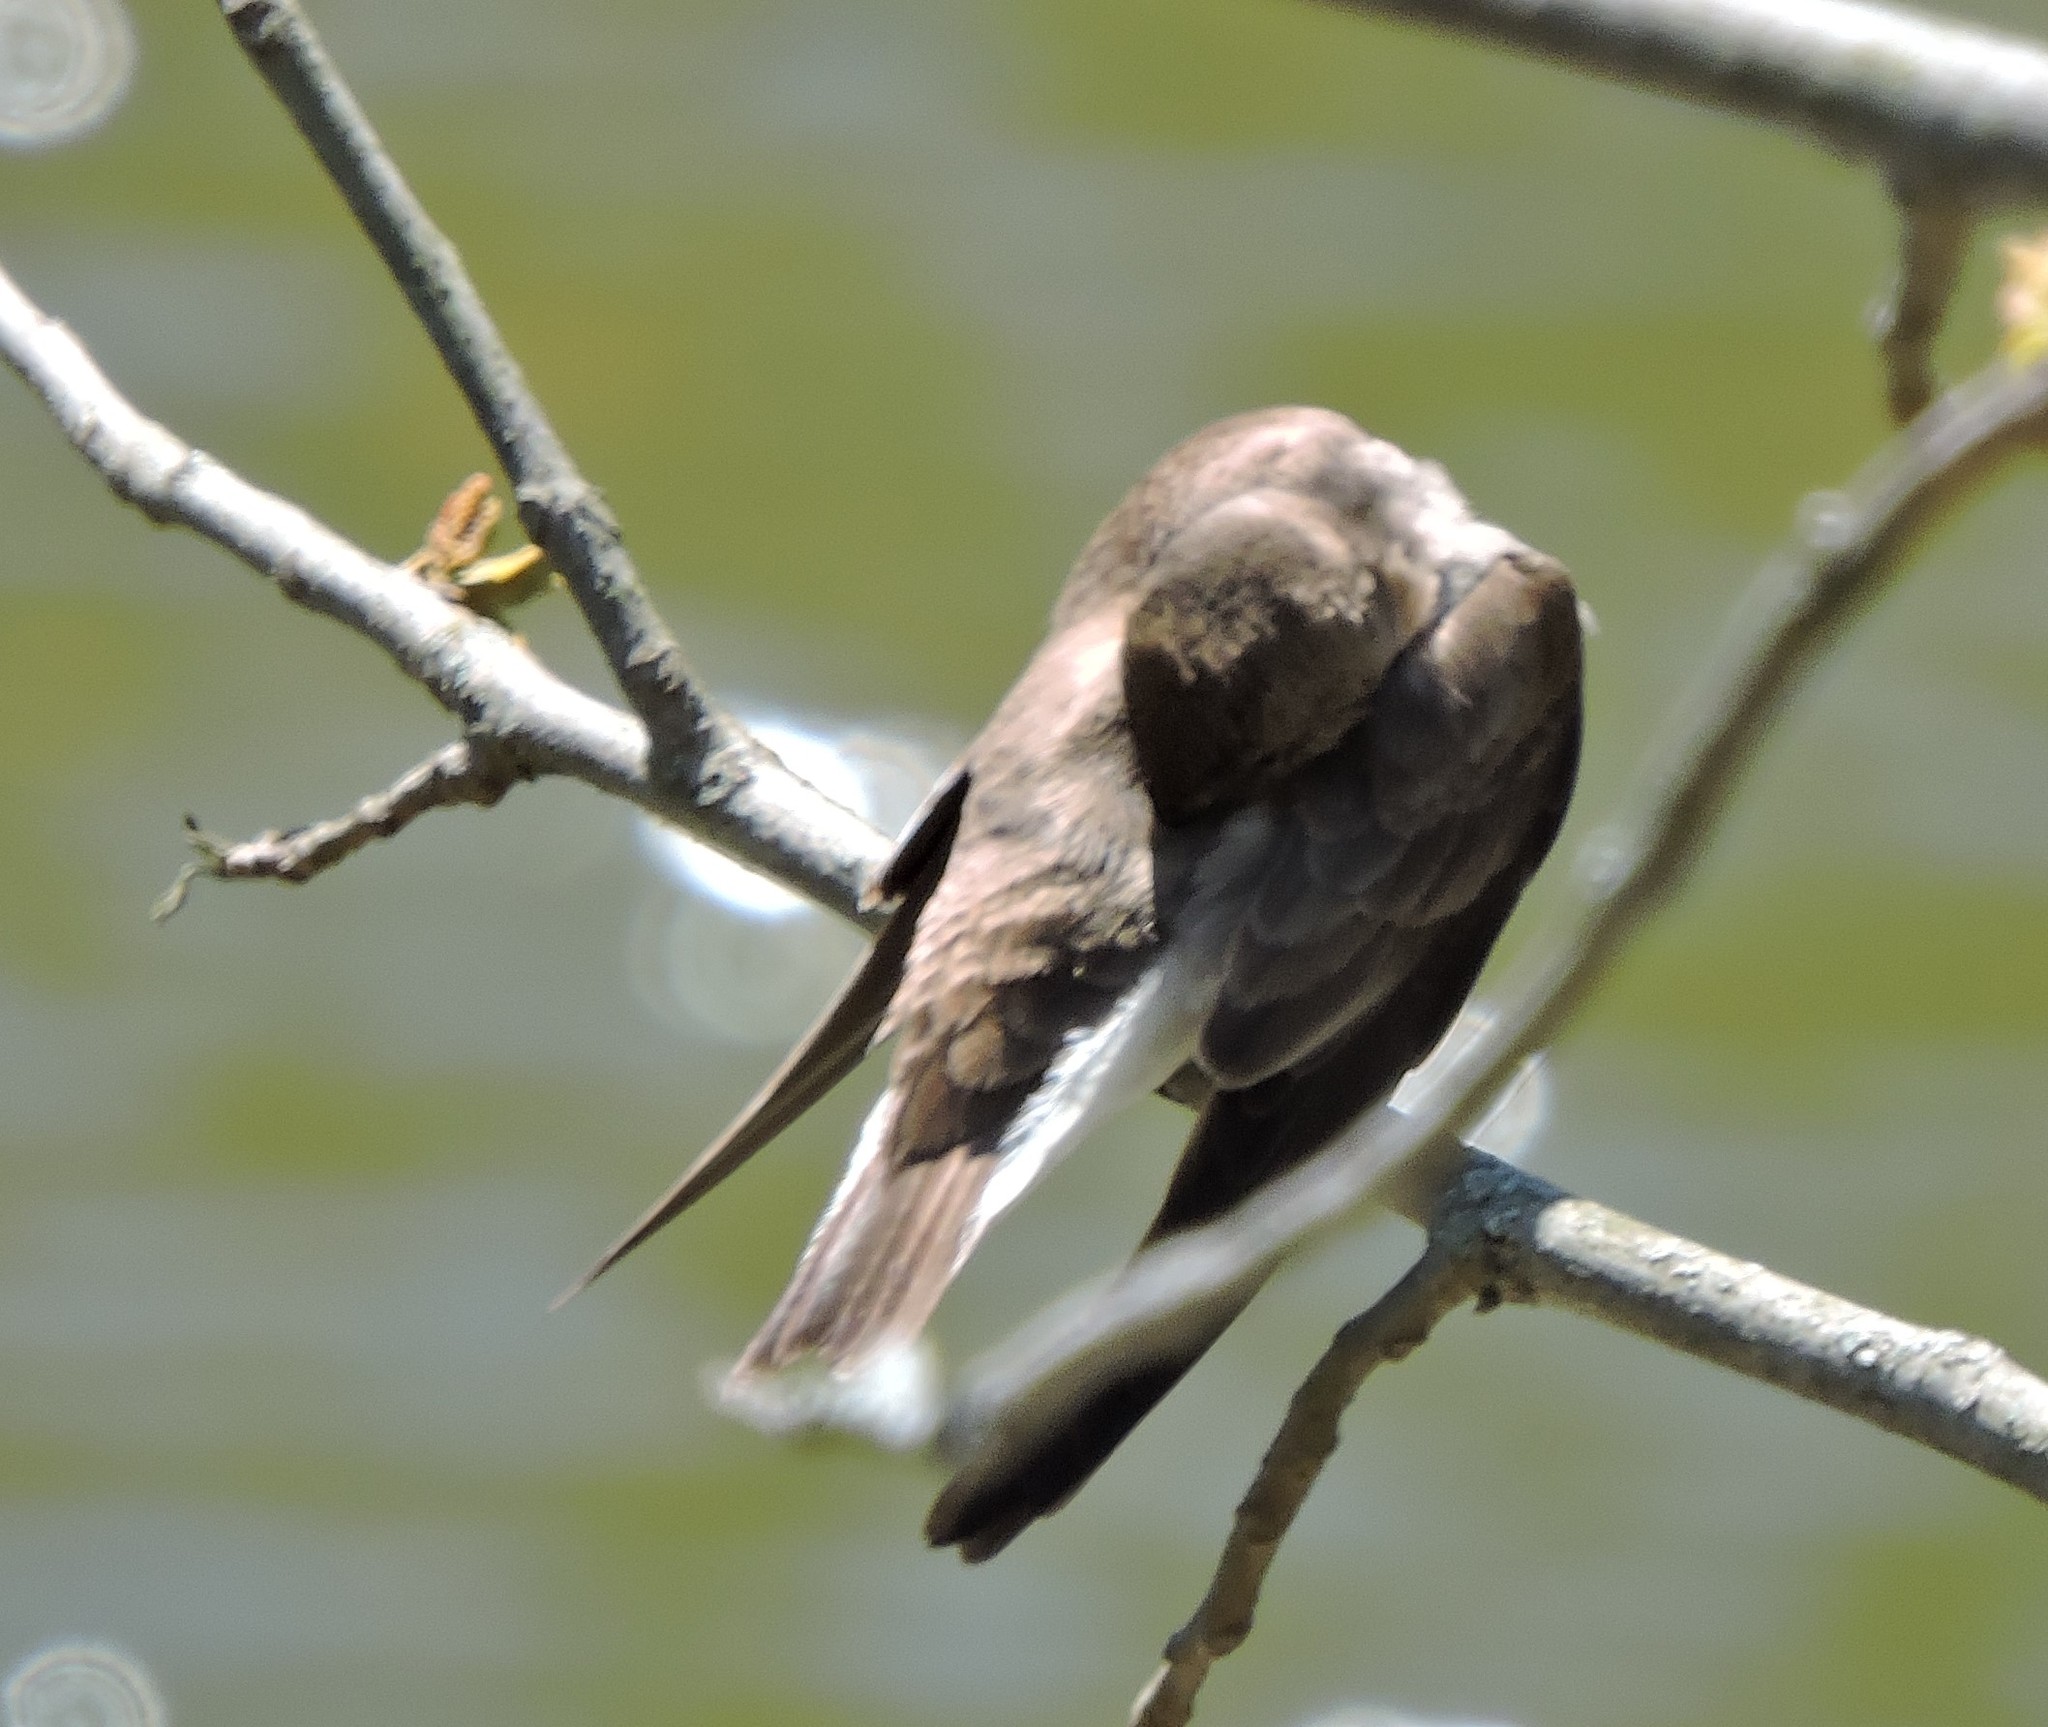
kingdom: Animalia
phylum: Chordata
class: Aves
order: Passeriformes
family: Hirundinidae
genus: Stelgidopteryx
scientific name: Stelgidopteryx serripennis
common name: Northern rough-winged swallow
